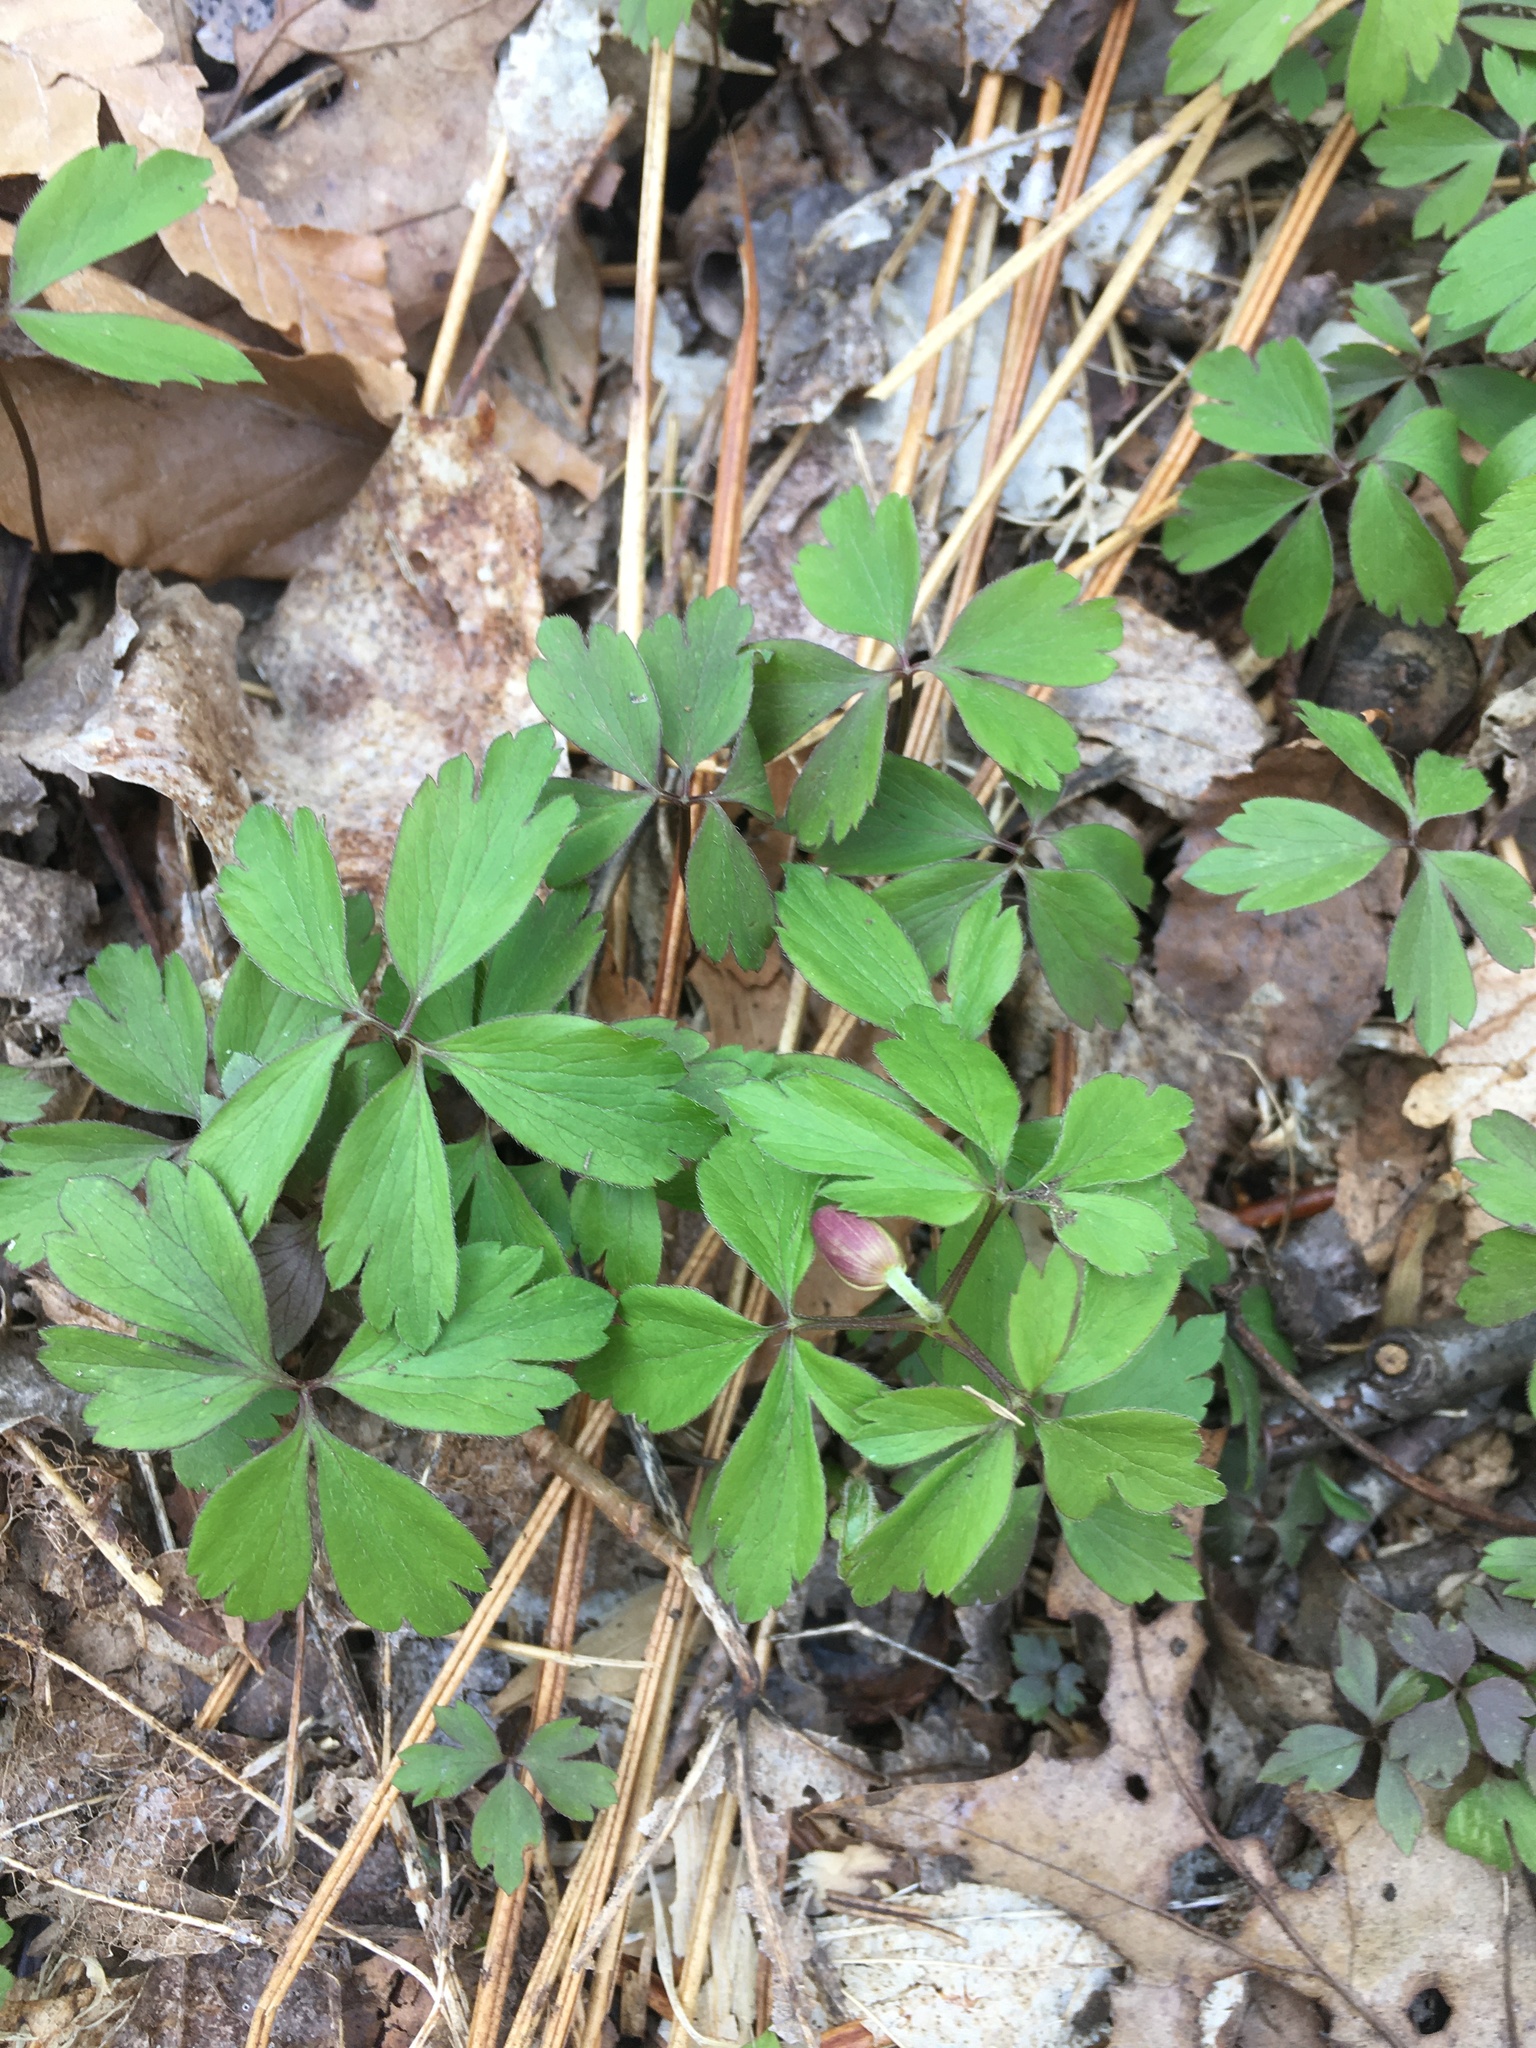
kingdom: Plantae
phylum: Tracheophyta
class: Magnoliopsida
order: Ranunculales
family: Ranunculaceae
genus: Anemone
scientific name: Anemone quinquefolia
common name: Wood anemone
